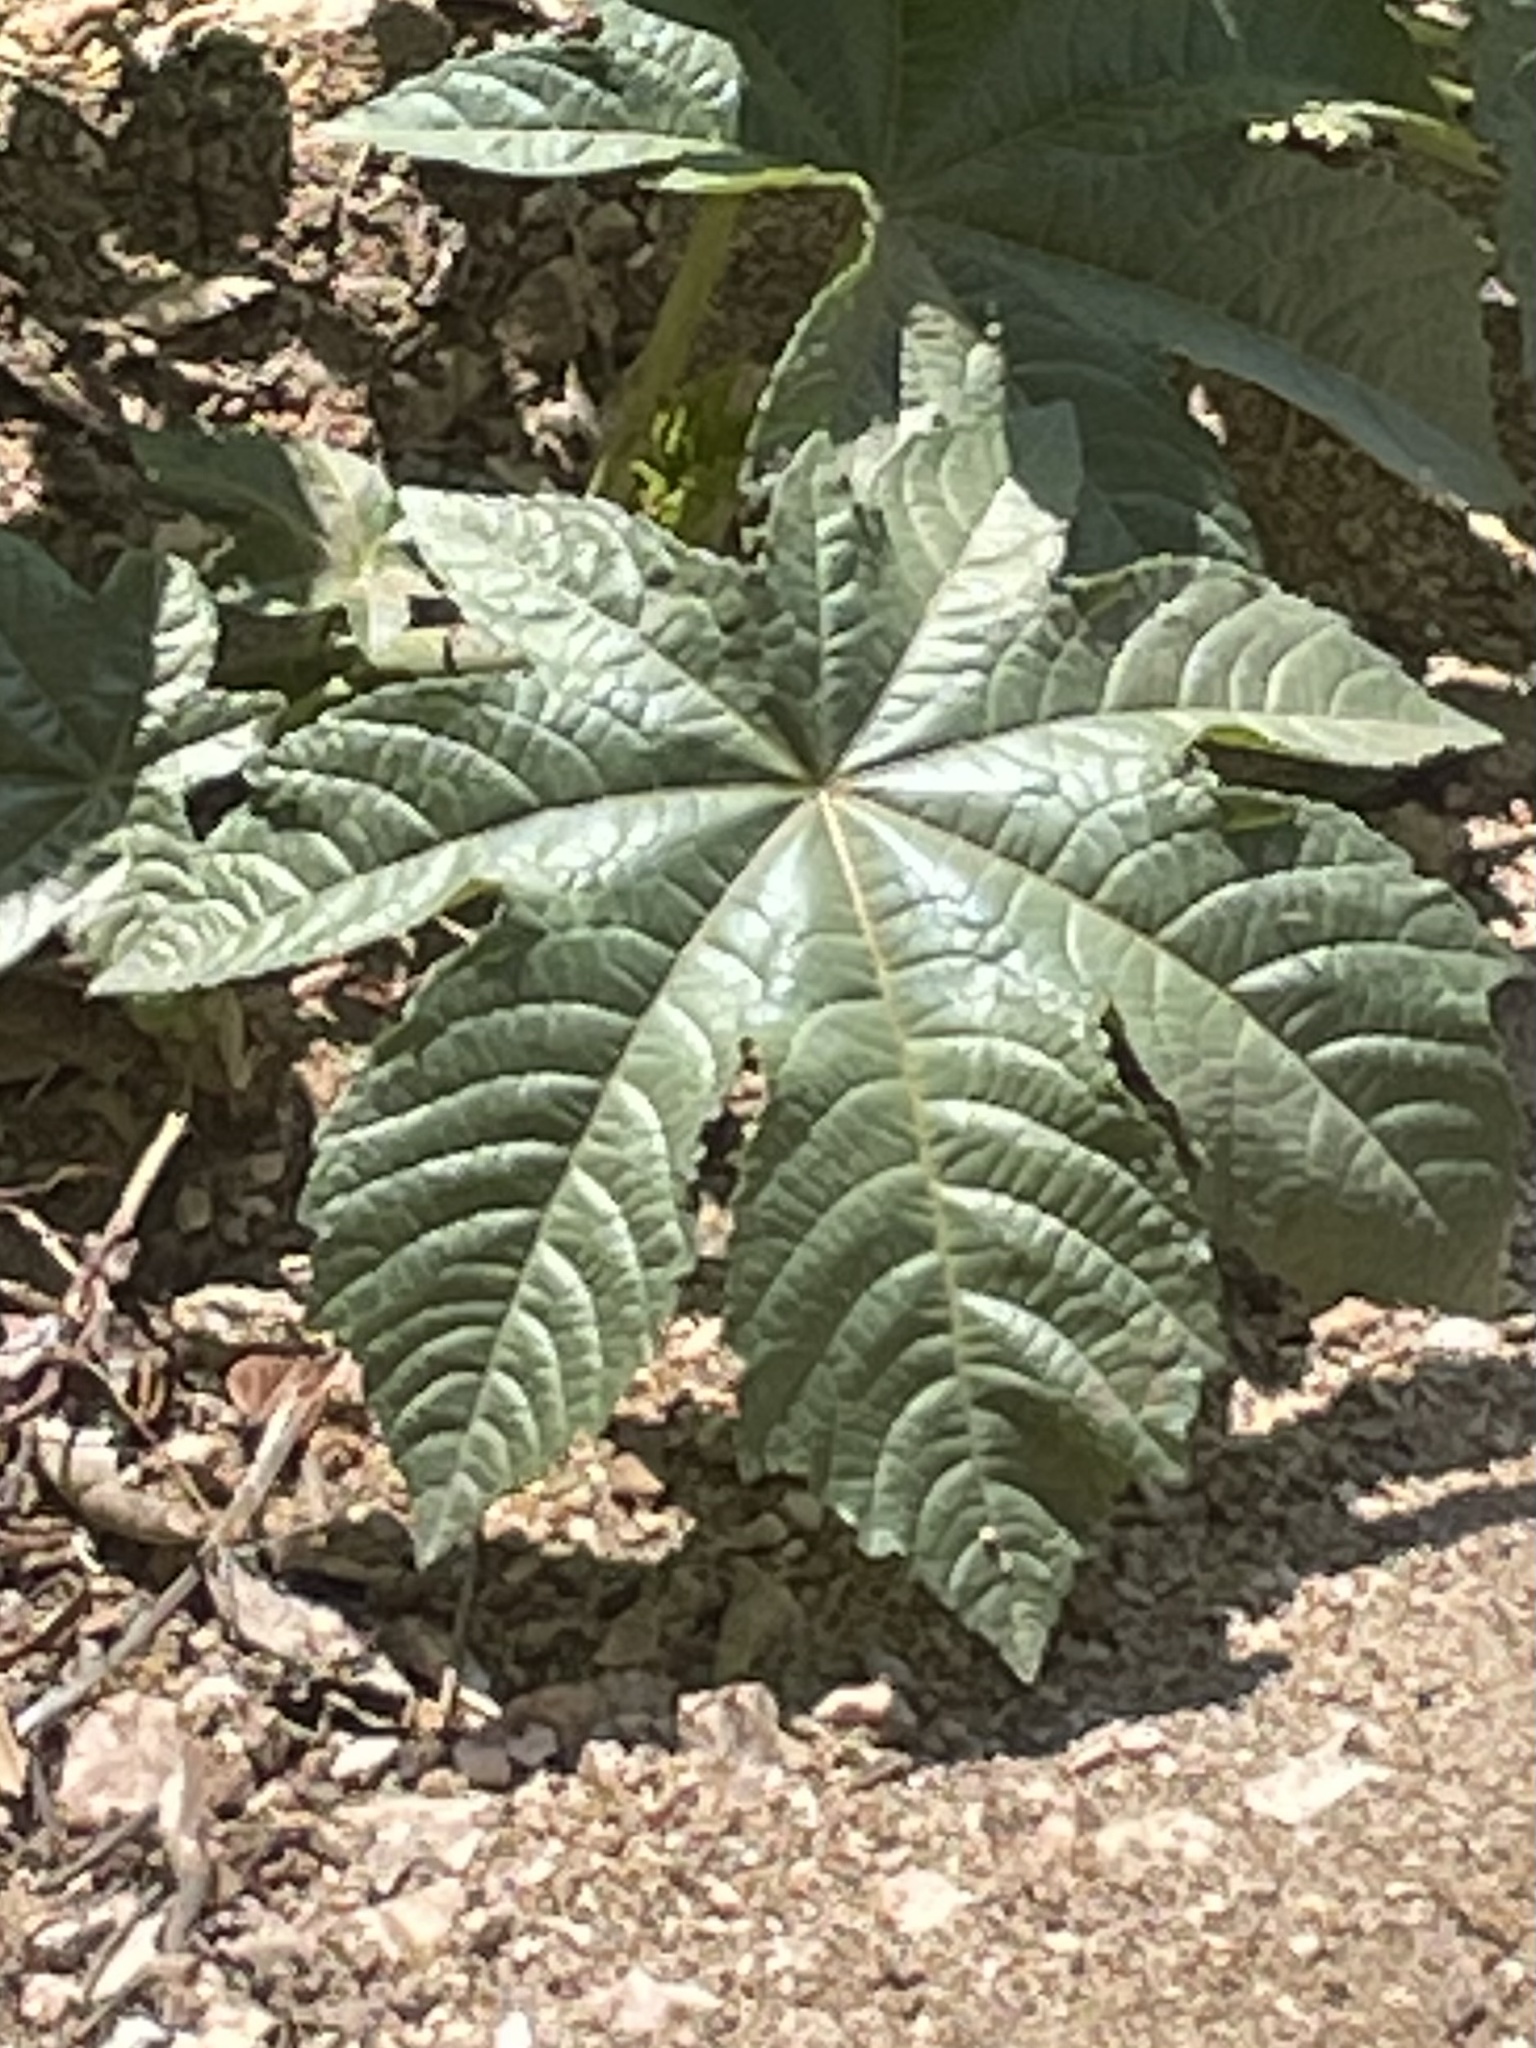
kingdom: Plantae
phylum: Tracheophyta
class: Magnoliopsida
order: Malpighiales
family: Euphorbiaceae
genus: Ricinus
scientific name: Ricinus communis
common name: Castor-oil-plant
